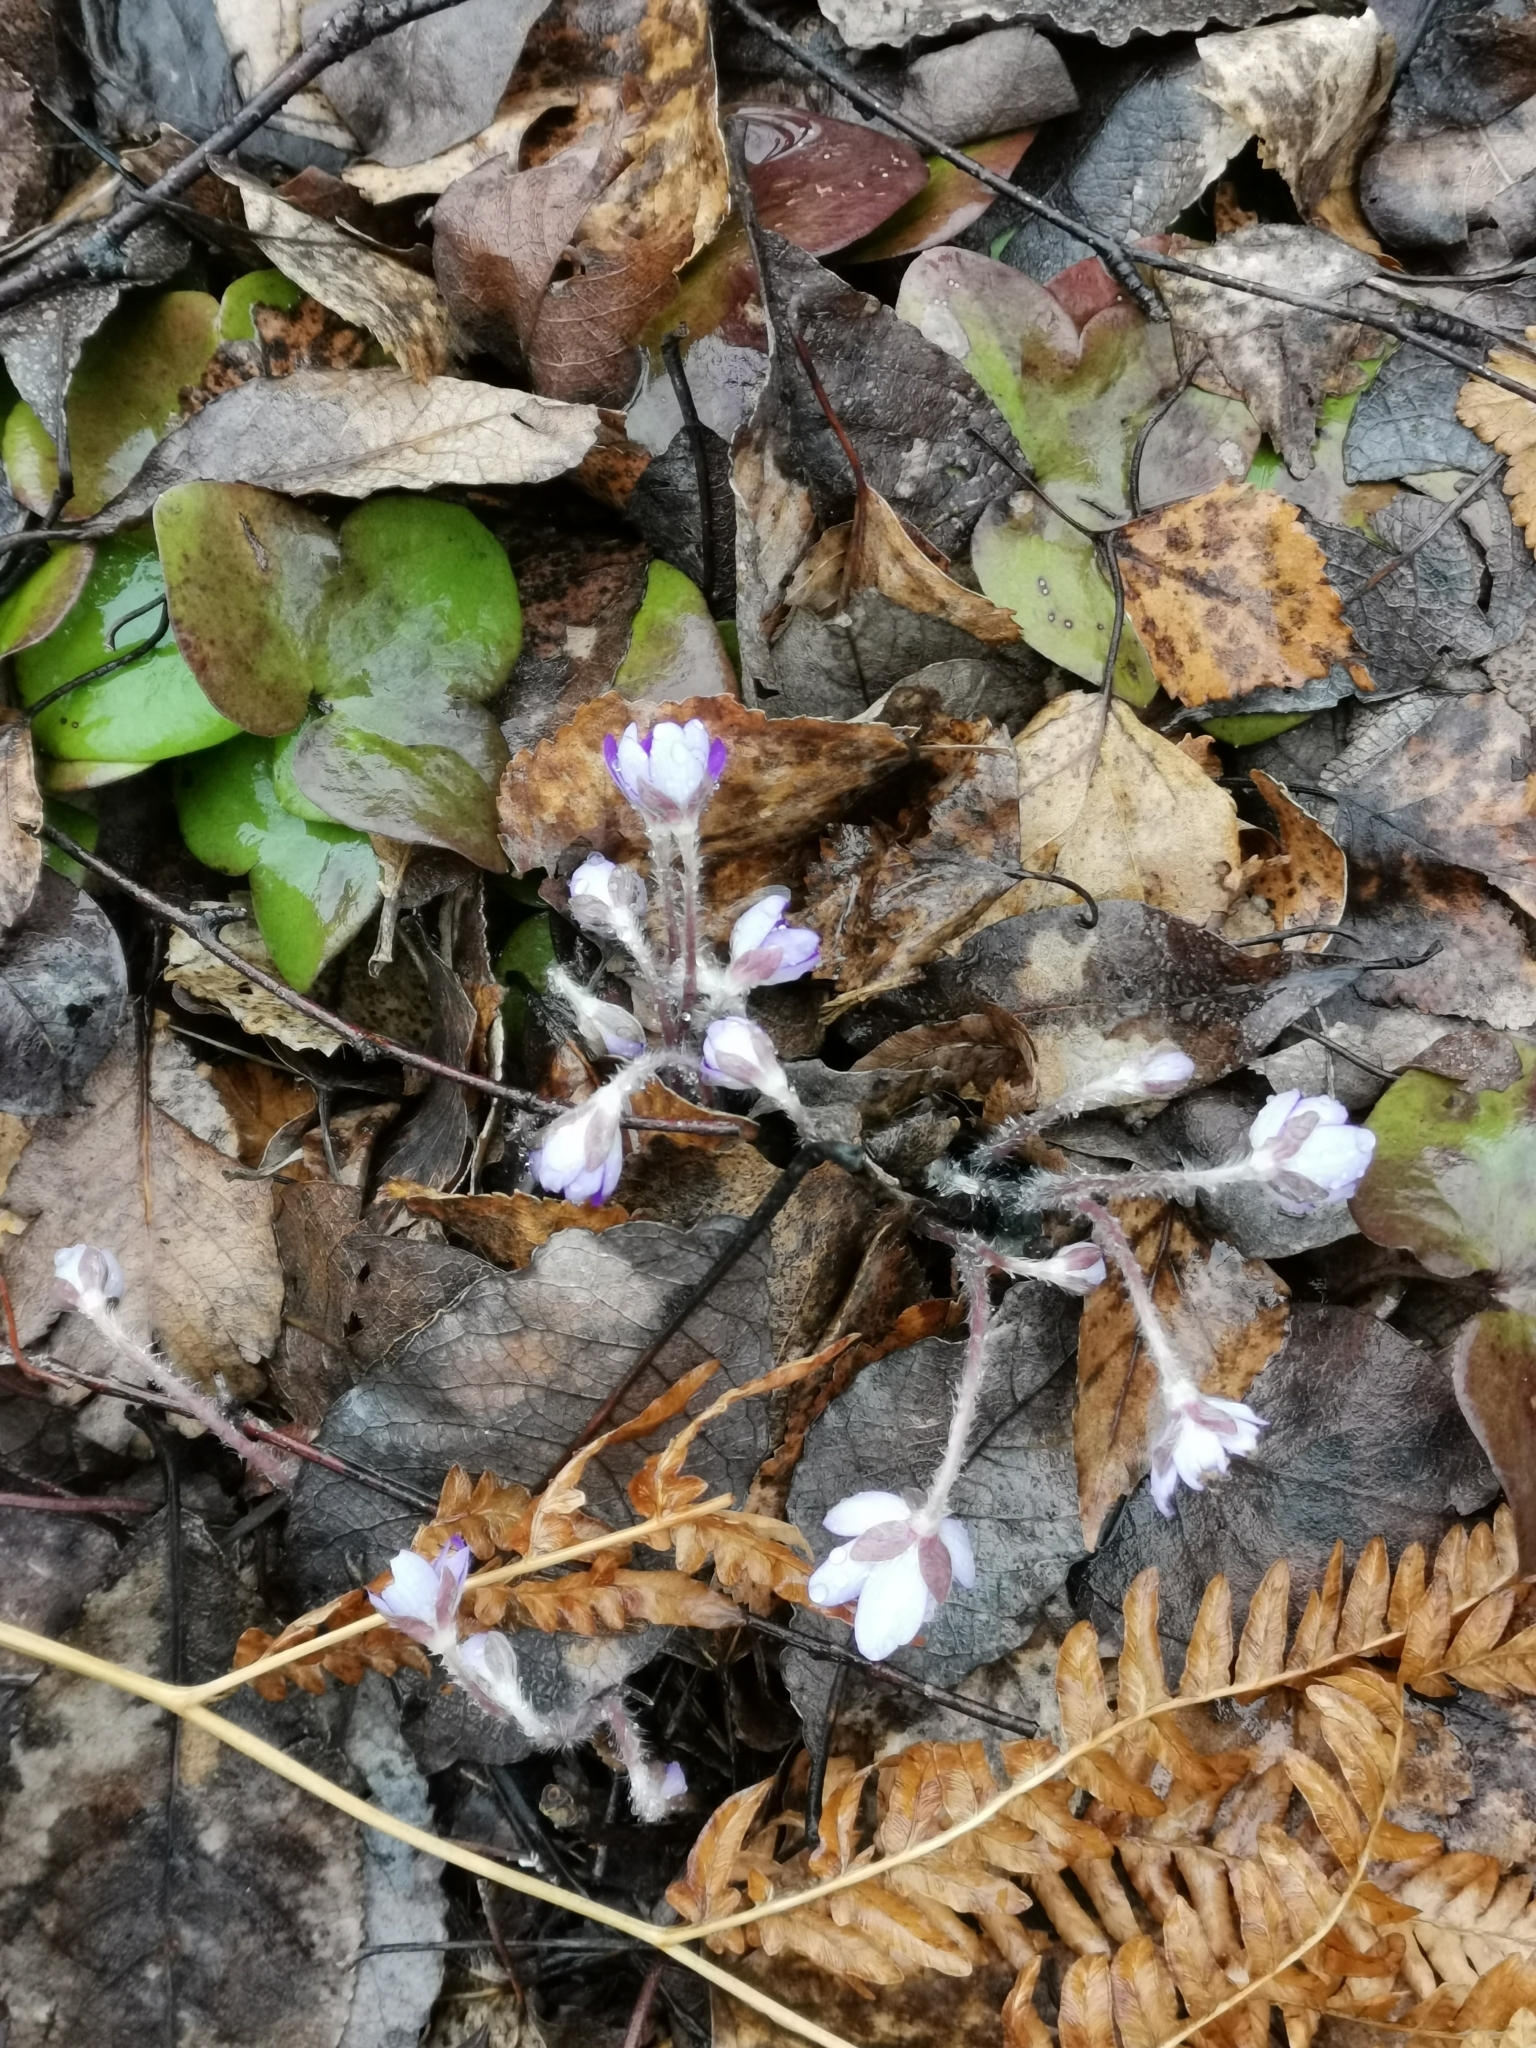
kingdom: Plantae
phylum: Tracheophyta
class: Magnoliopsida
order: Ranunculales
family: Ranunculaceae
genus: Hepatica
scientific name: Hepatica nobilis
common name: Liverleaf
